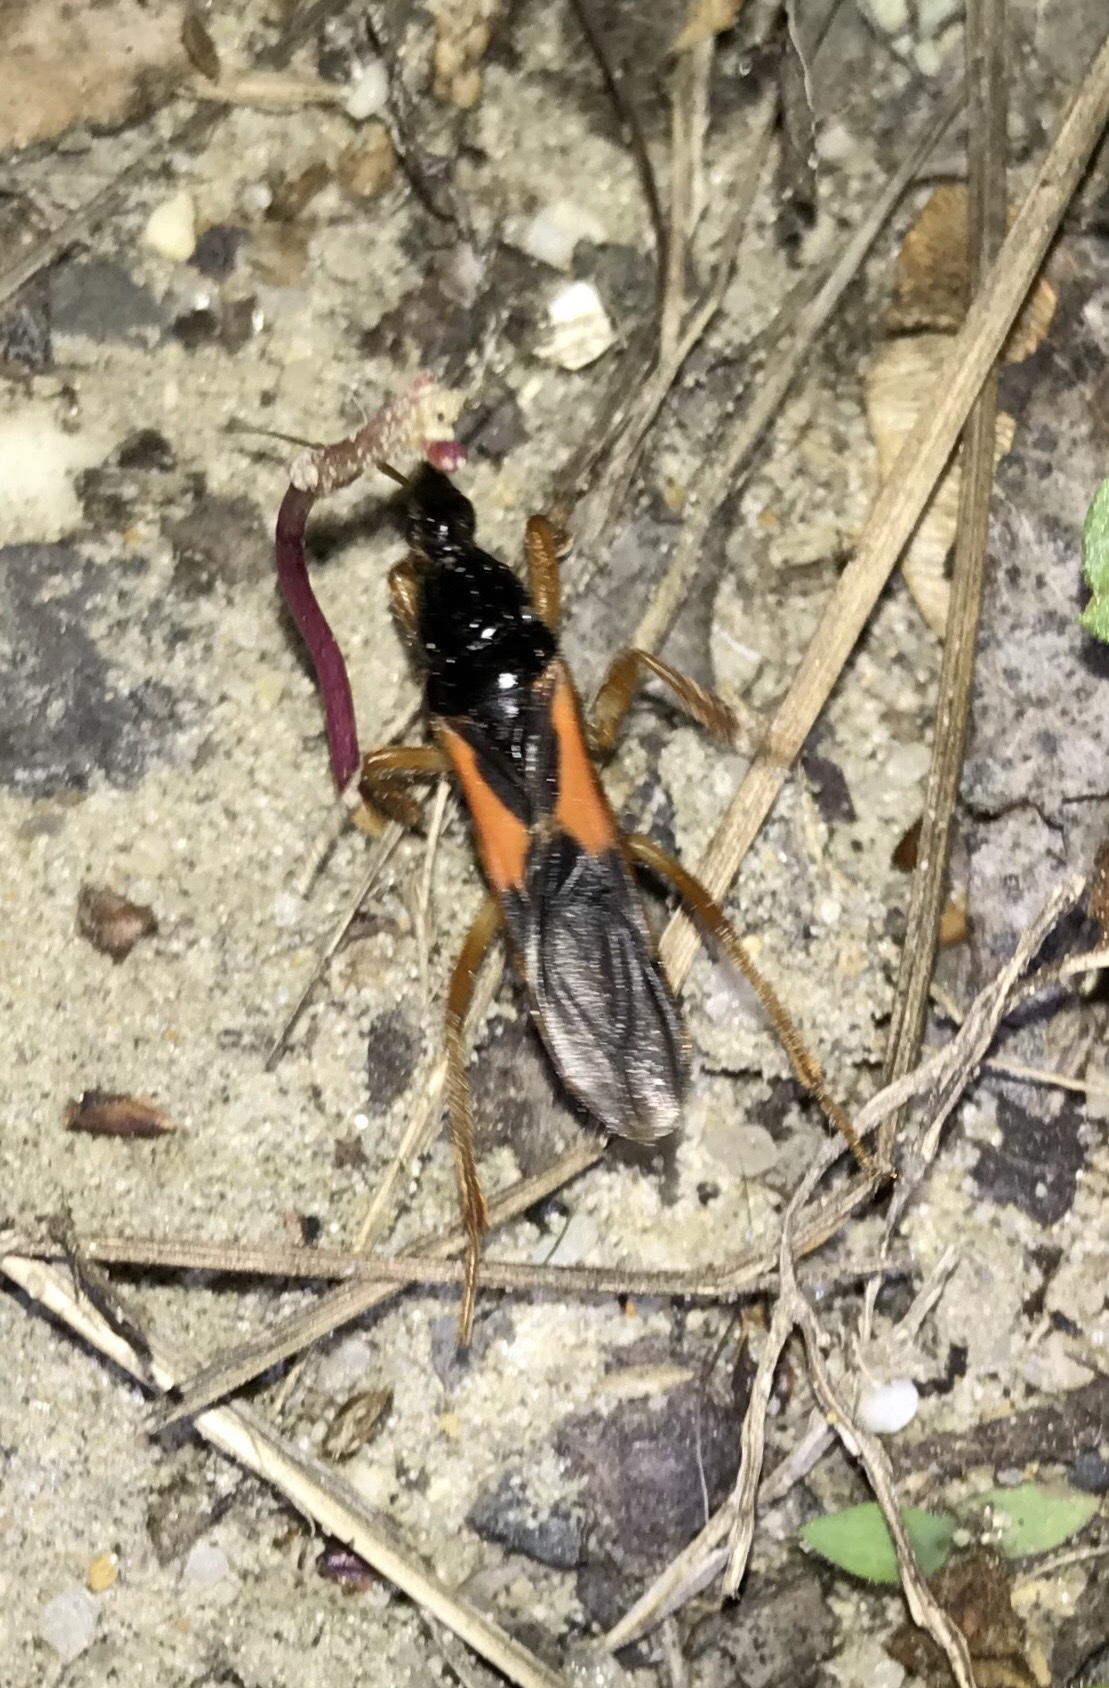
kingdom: Animalia
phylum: Arthropoda
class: Insecta
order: Hemiptera
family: Reduviidae
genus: Sirthenea
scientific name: Sirthenea stria
